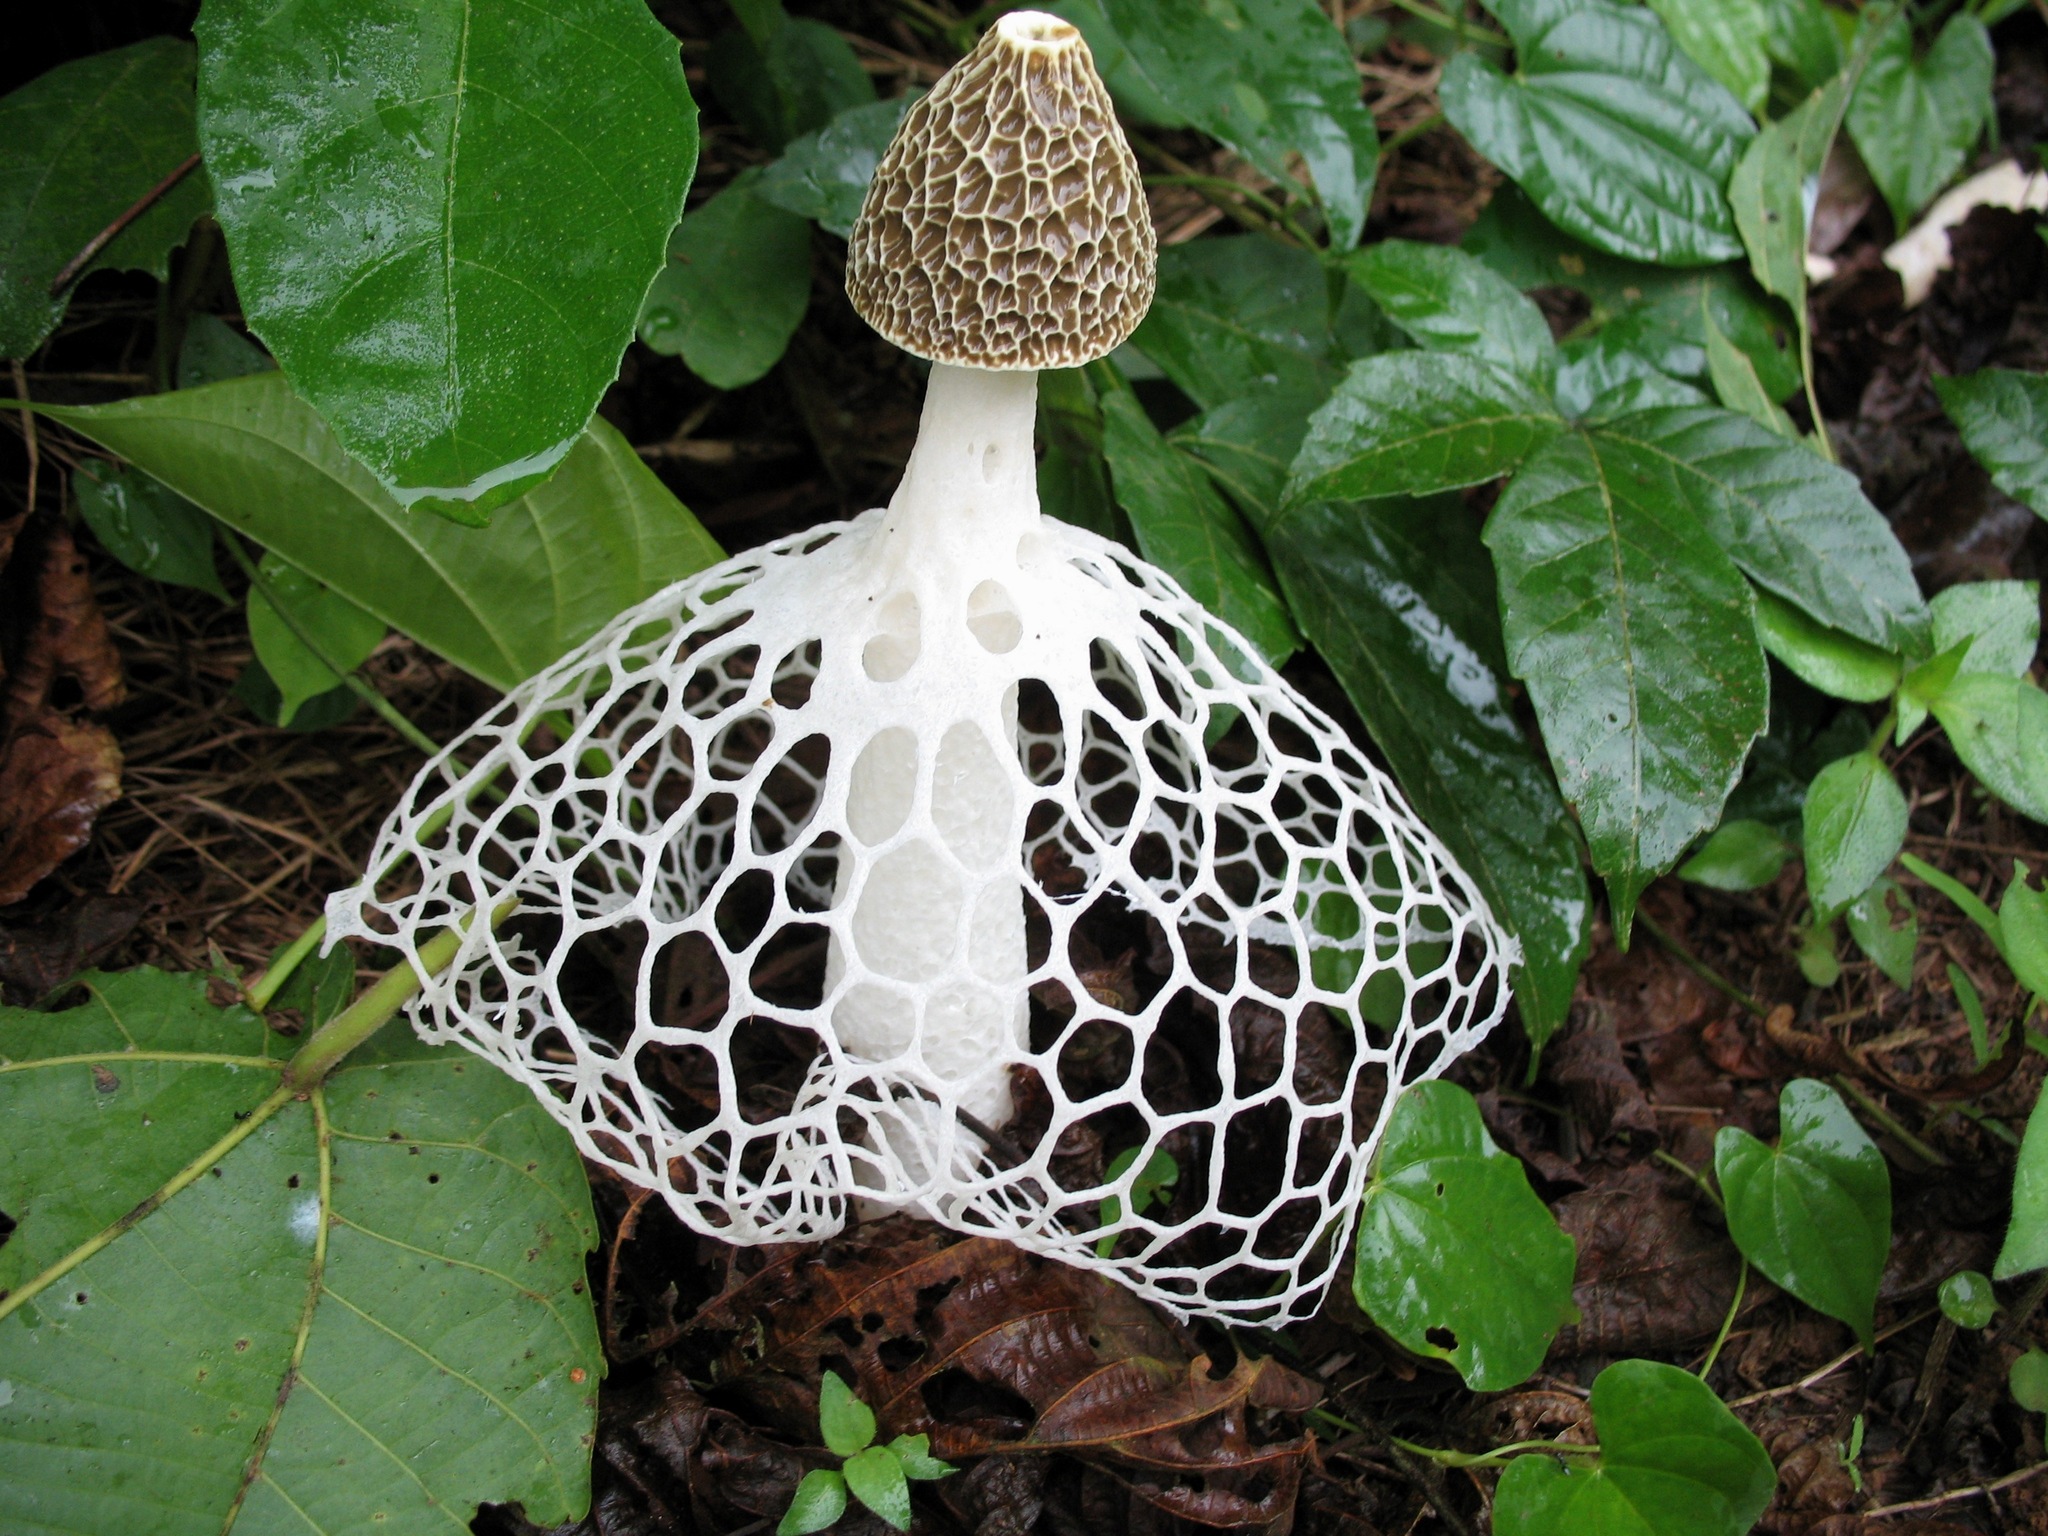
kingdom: Fungi
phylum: Basidiomycota
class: Agaricomycetes
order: Phallales
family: Phallaceae
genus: Phallus
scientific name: Phallus indusiatus
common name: Bridal veil stinkhorn
